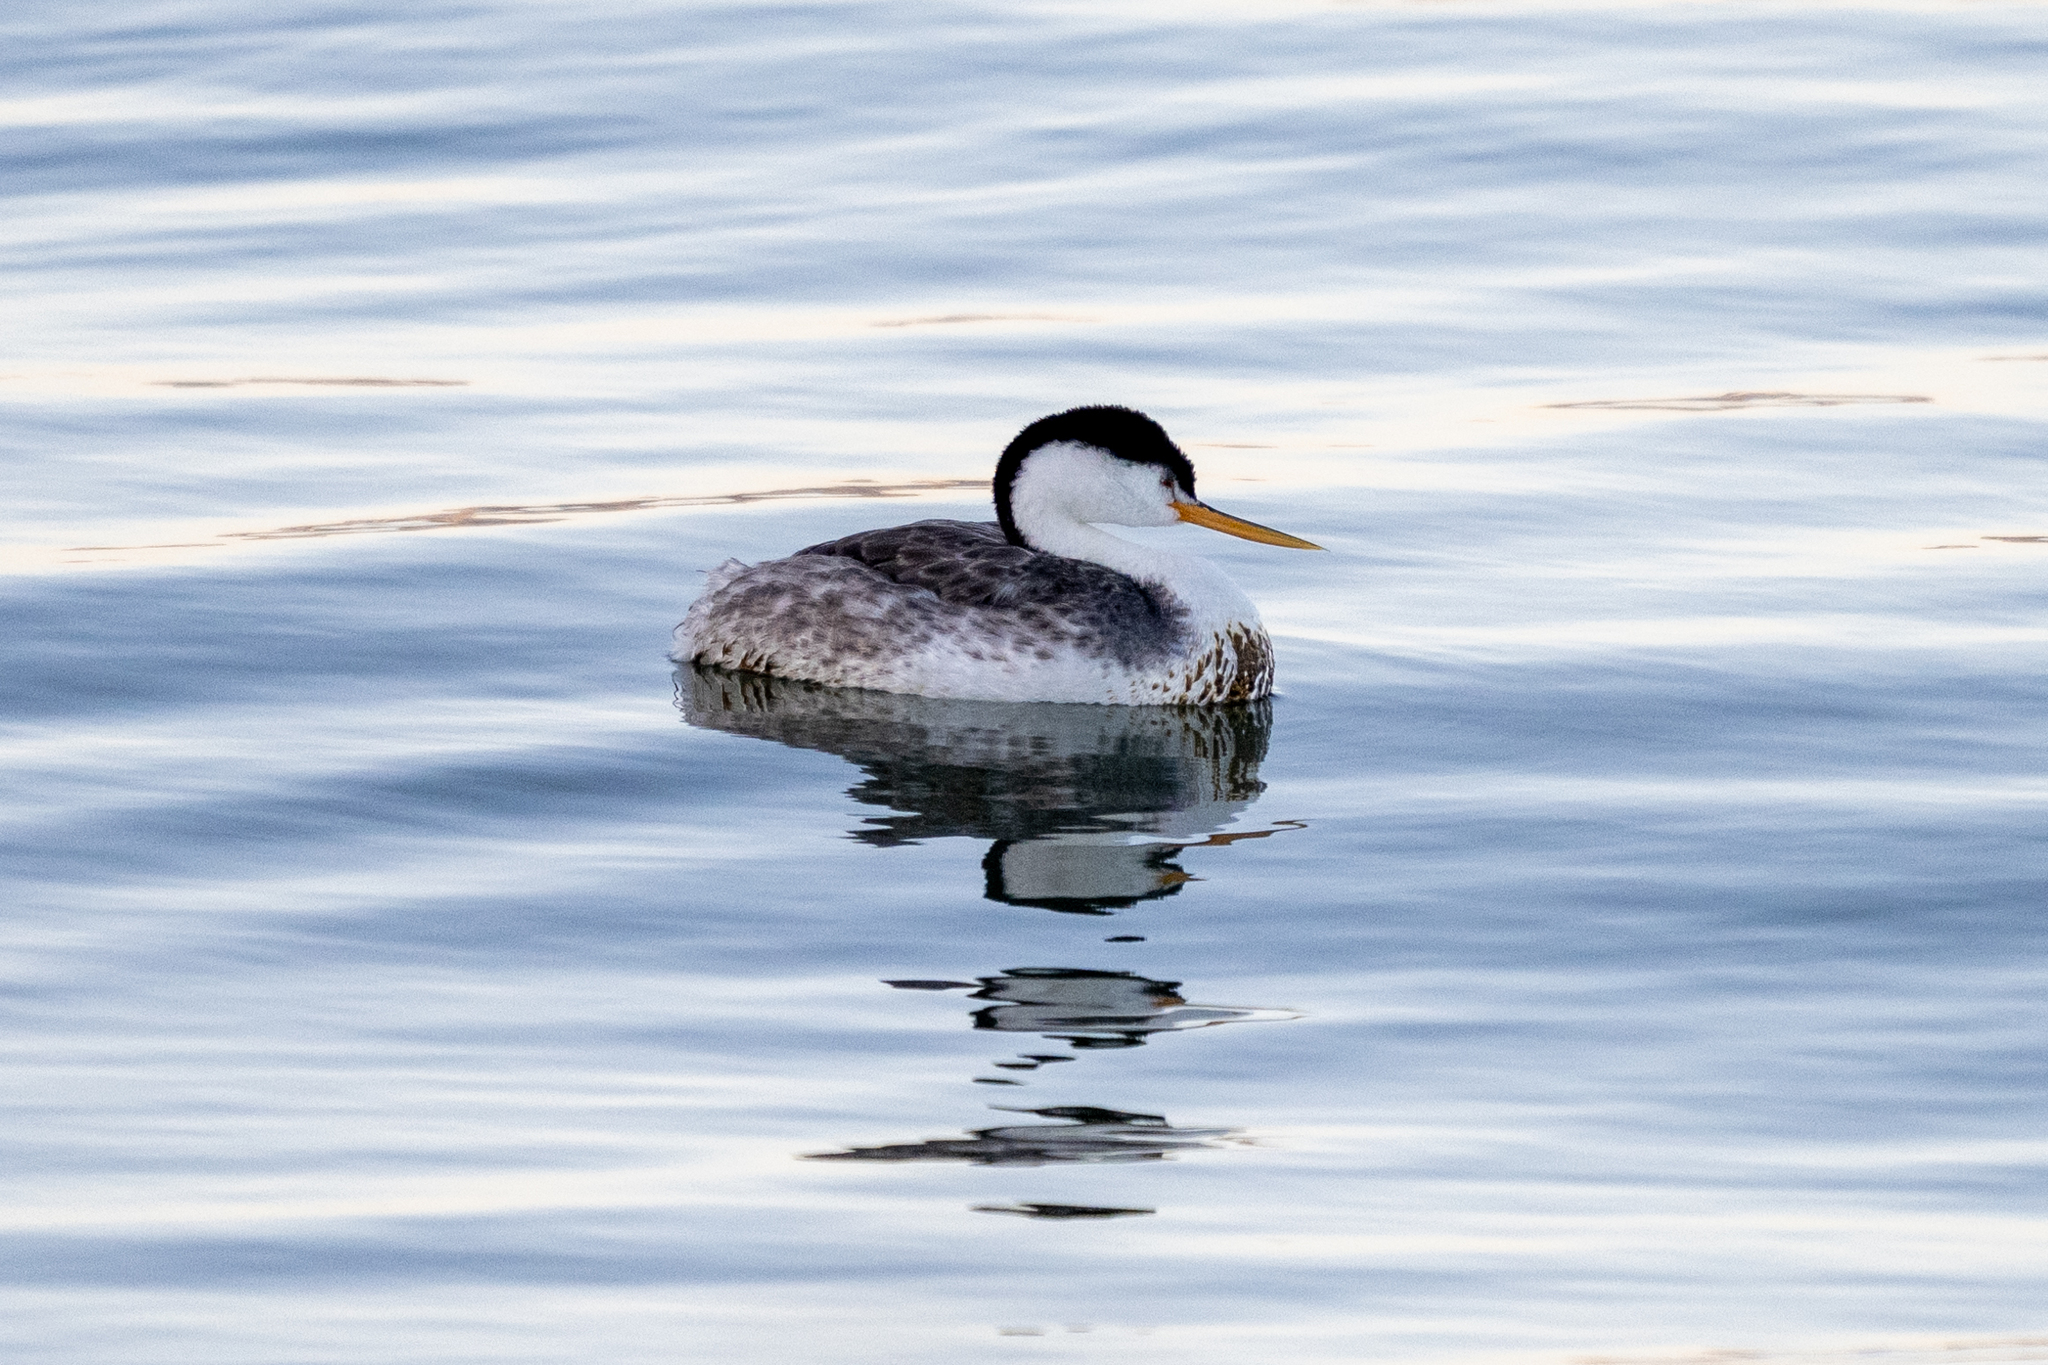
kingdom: Animalia
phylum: Chordata
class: Aves
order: Podicipediformes
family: Podicipedidae
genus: Aechmophorus
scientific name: Aechmophorus clarkii
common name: Clark's grebe
